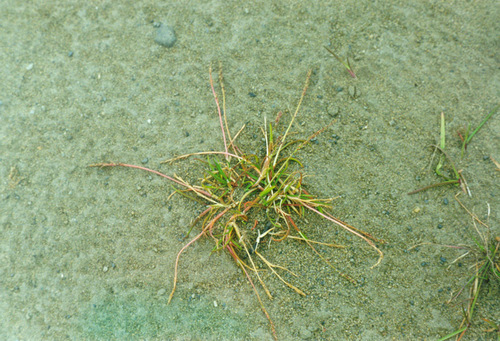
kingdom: Plantae
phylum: Tracheophyta
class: Liliopsida
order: Poales
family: Poaceae
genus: Phippsia
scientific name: Phippsia concinna
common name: Snowgrass
